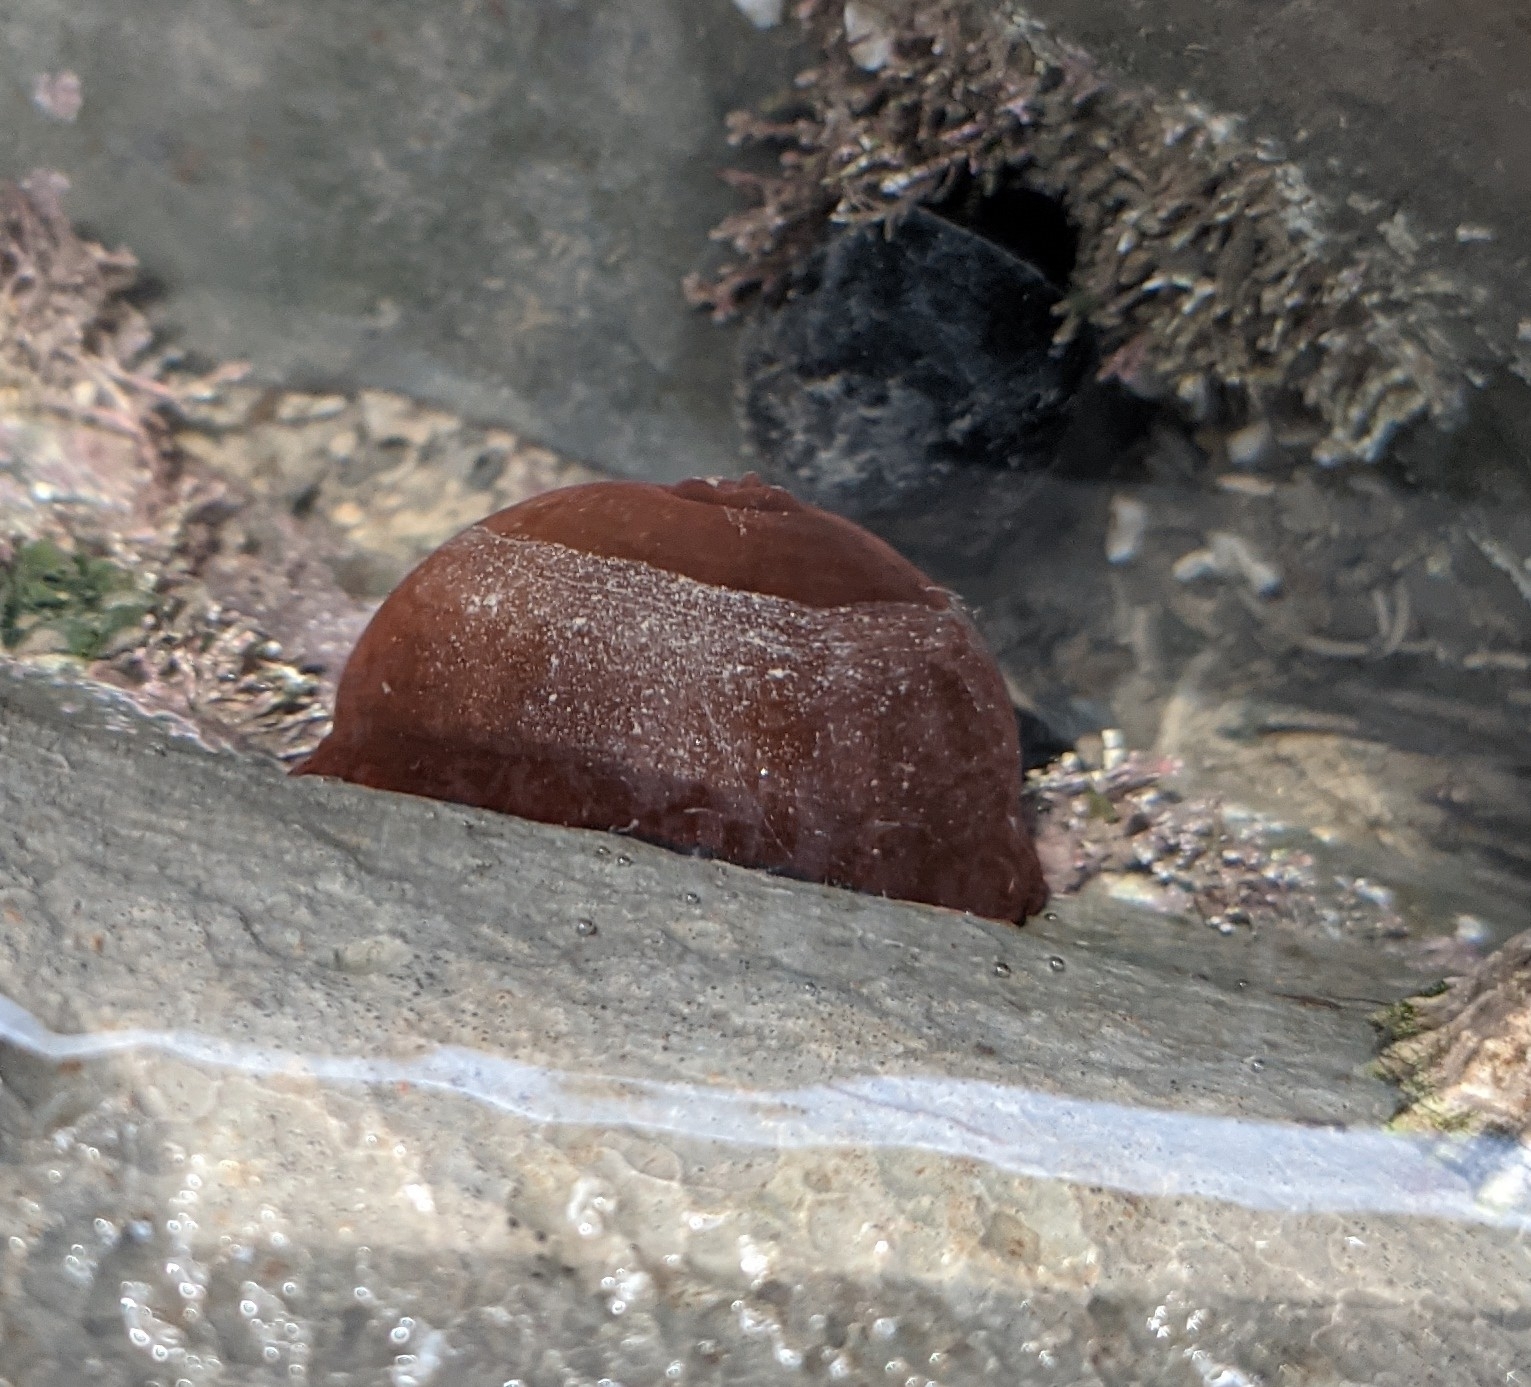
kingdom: Animalia
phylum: Cnidaria
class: Anthozoa
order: Actiniaria
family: Actiniidae
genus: Actinia
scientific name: Actinia equina
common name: Beadlet anemone
